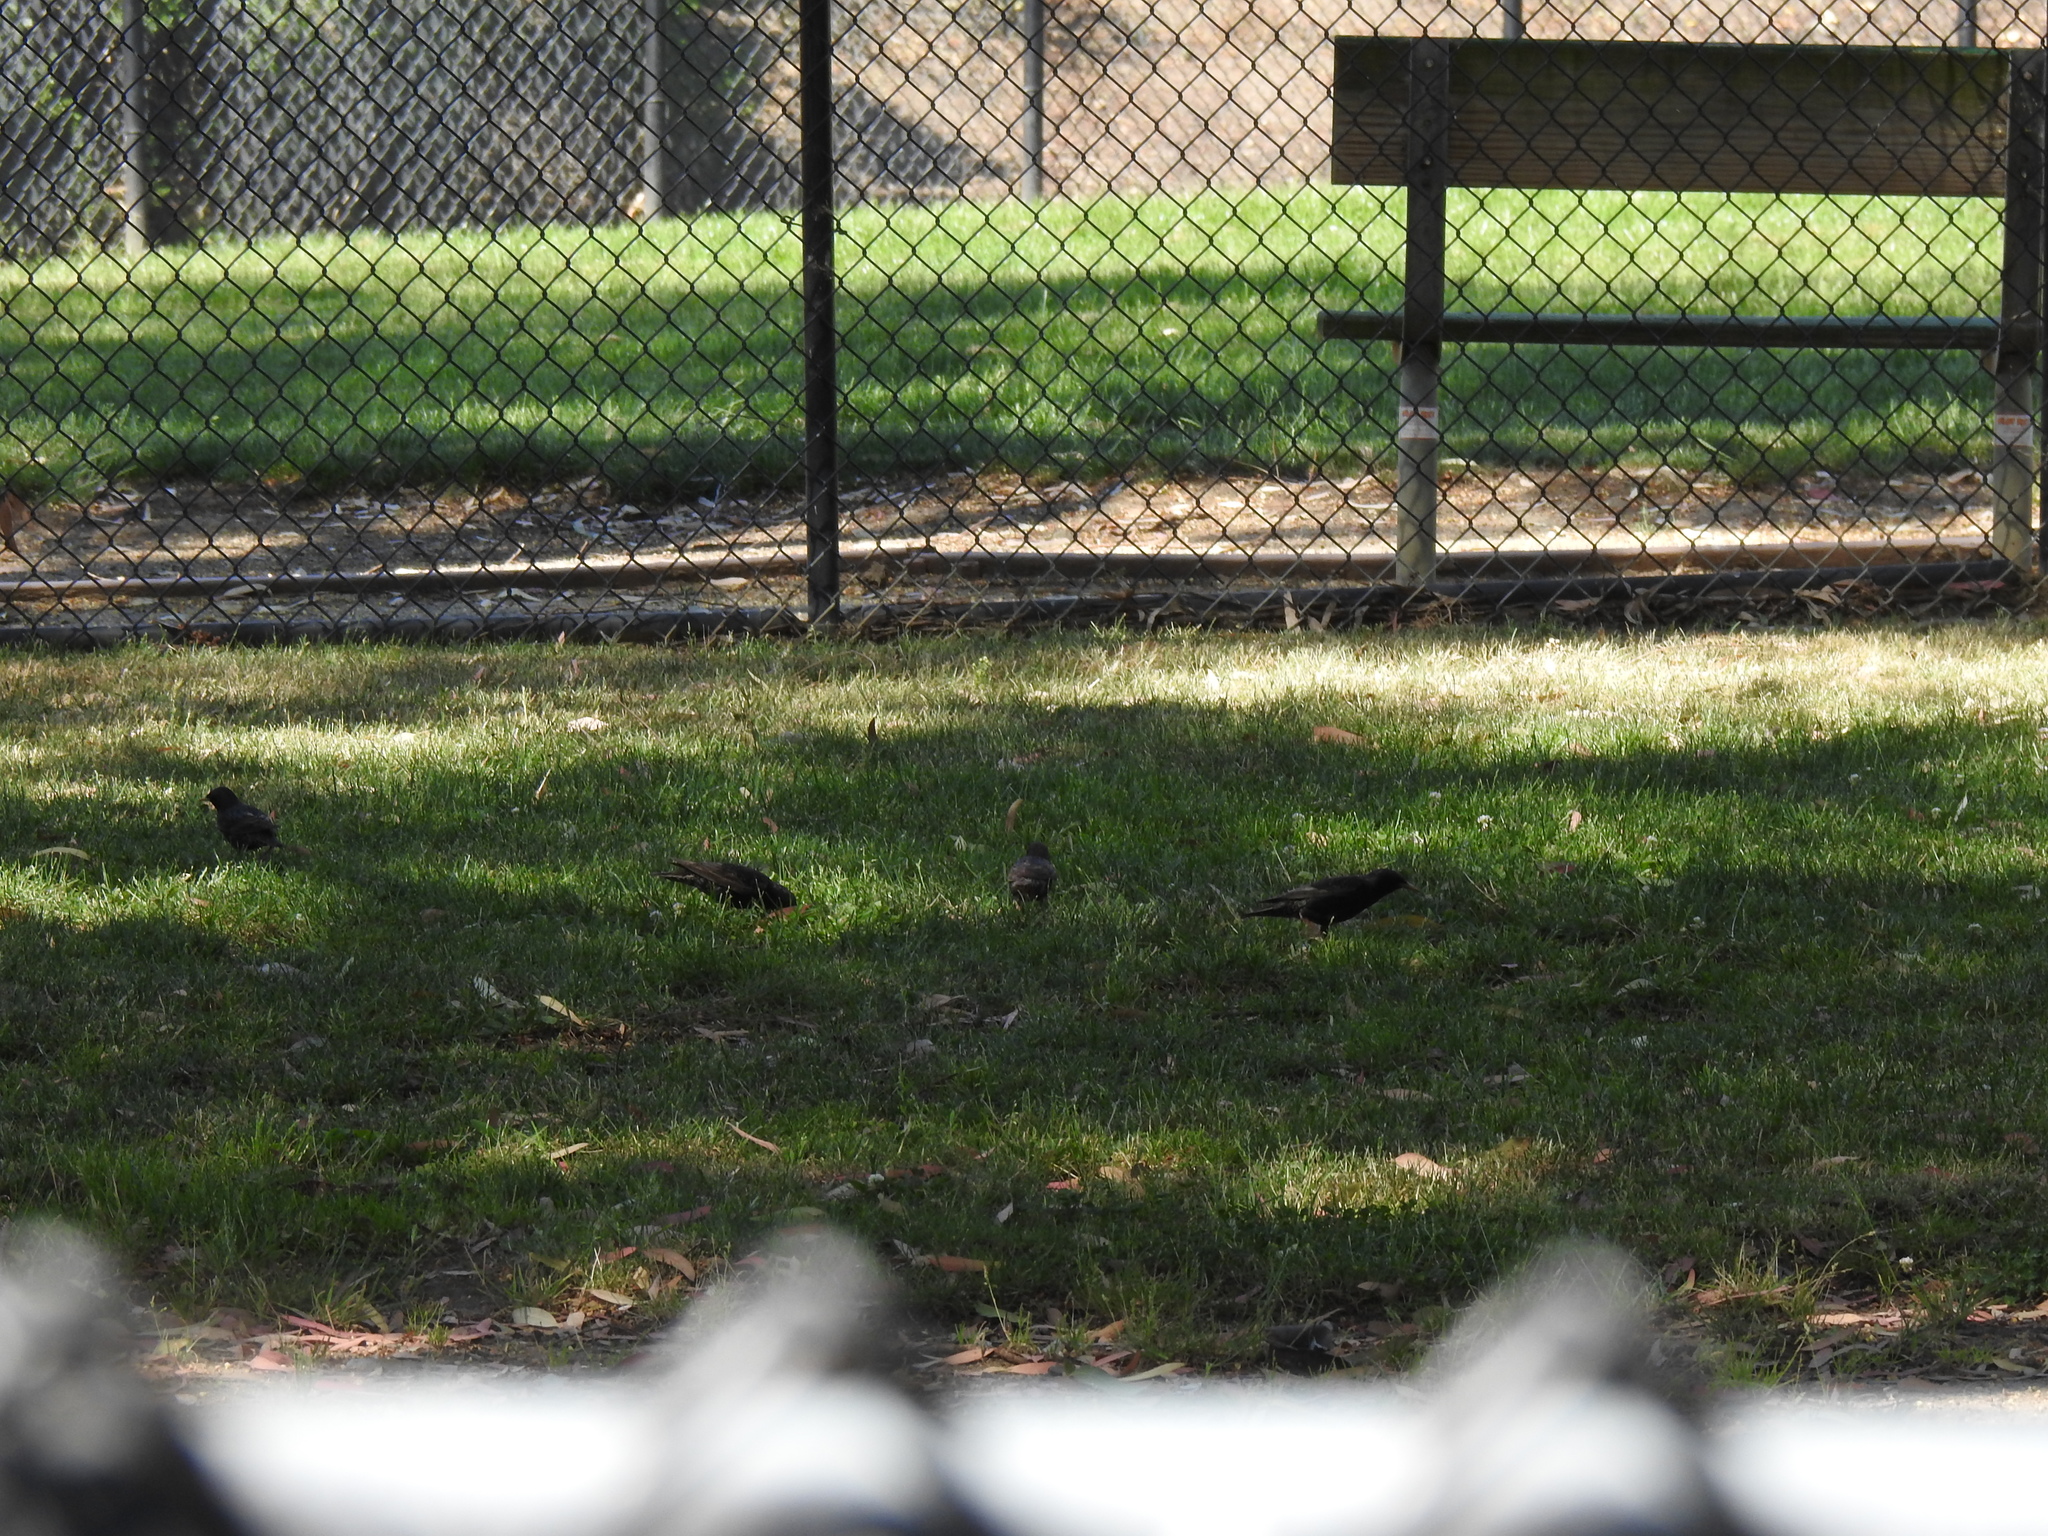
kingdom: Animalia
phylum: Chordata
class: Aves
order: Passeriformes
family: Sturnidae
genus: Sturnus
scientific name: Sturnus vulgaris
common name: Common starling
